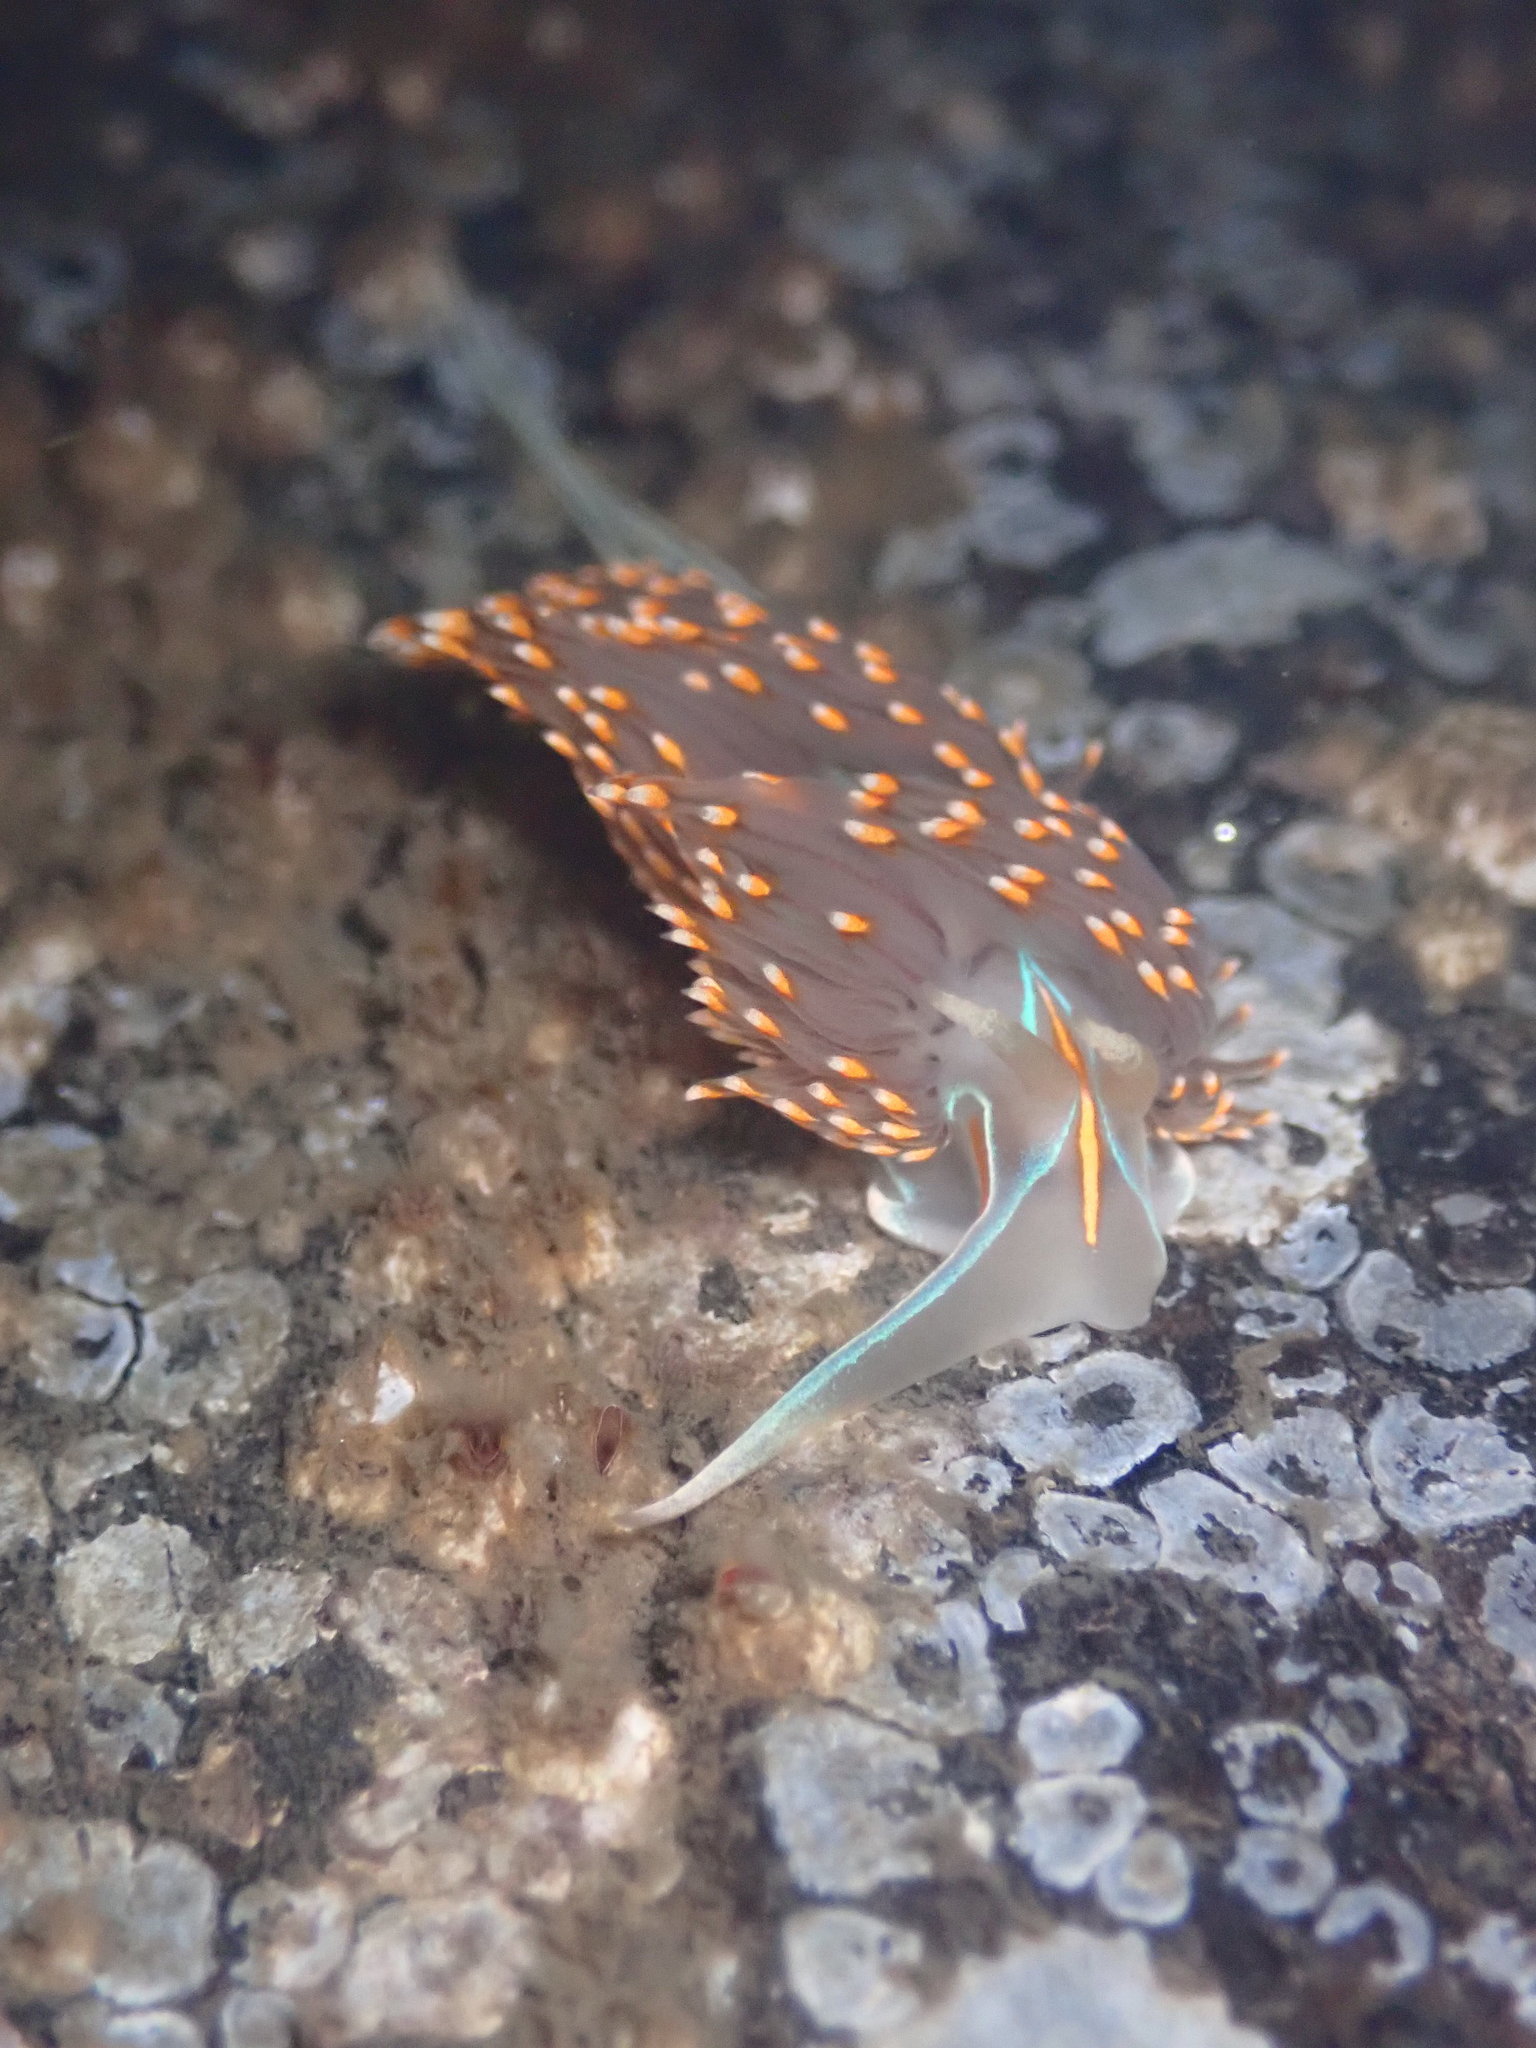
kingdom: Animalia
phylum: Mollusca
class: Gastropoda
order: Nudibranchia
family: Myrrhinidae
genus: Hermissenda
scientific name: Hermissenda opalescens
